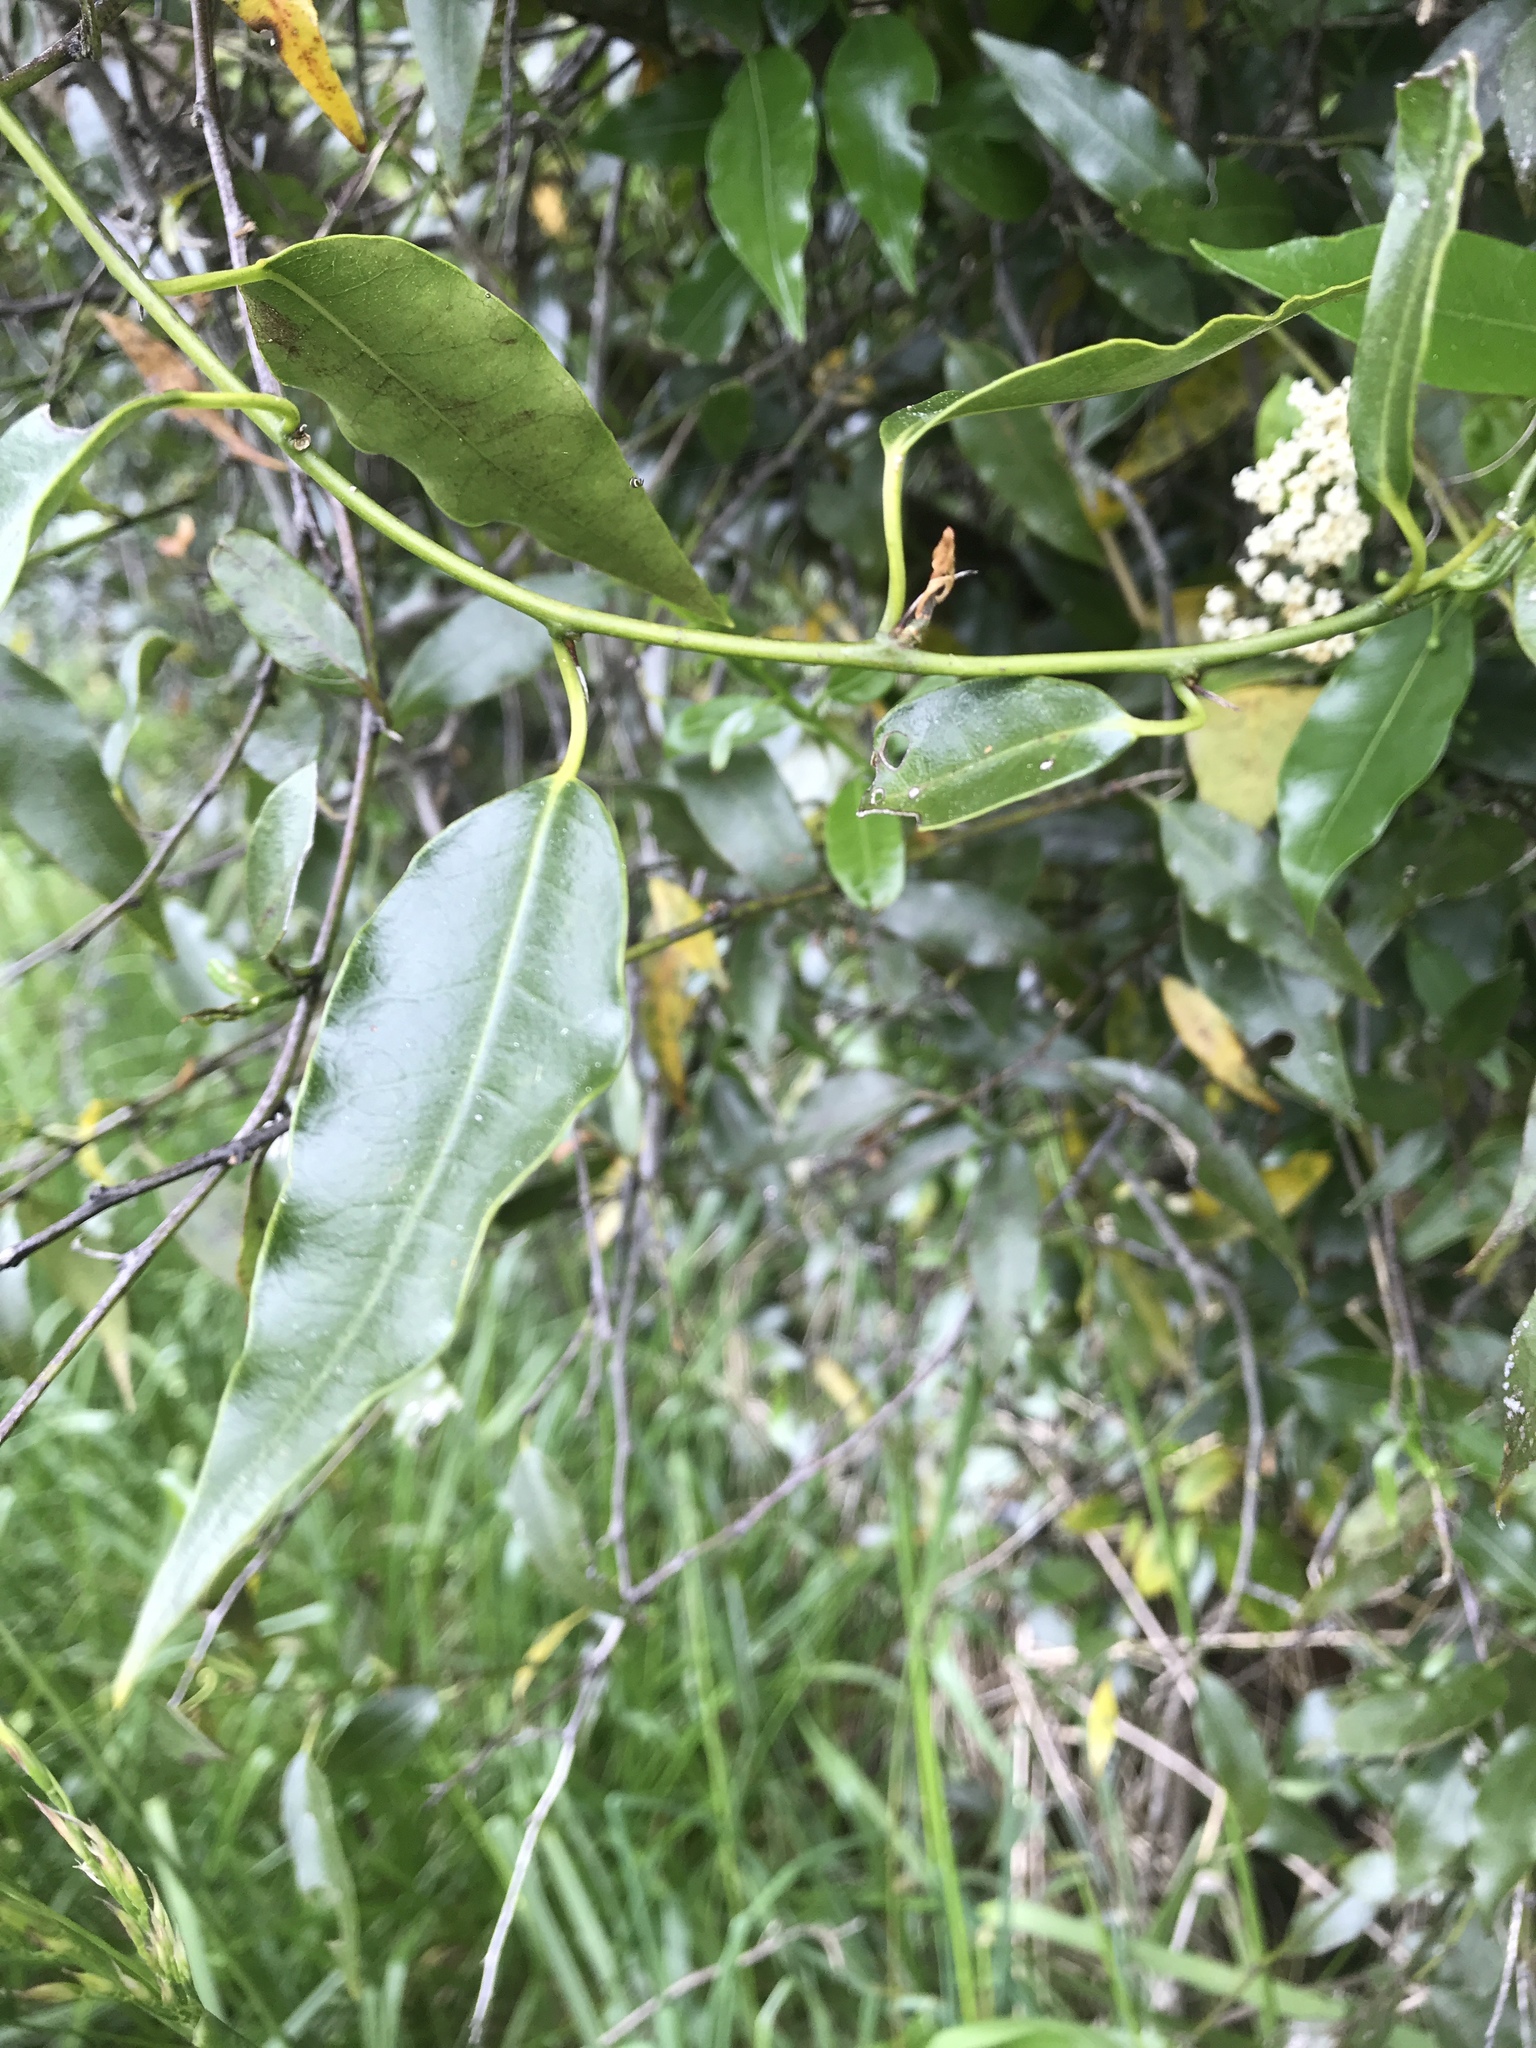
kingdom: Plantae
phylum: Tracheophyta
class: Magnoliopsida
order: Gentianales
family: Apocynaceae
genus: Parsonsia
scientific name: Parsonsia heterophylla
